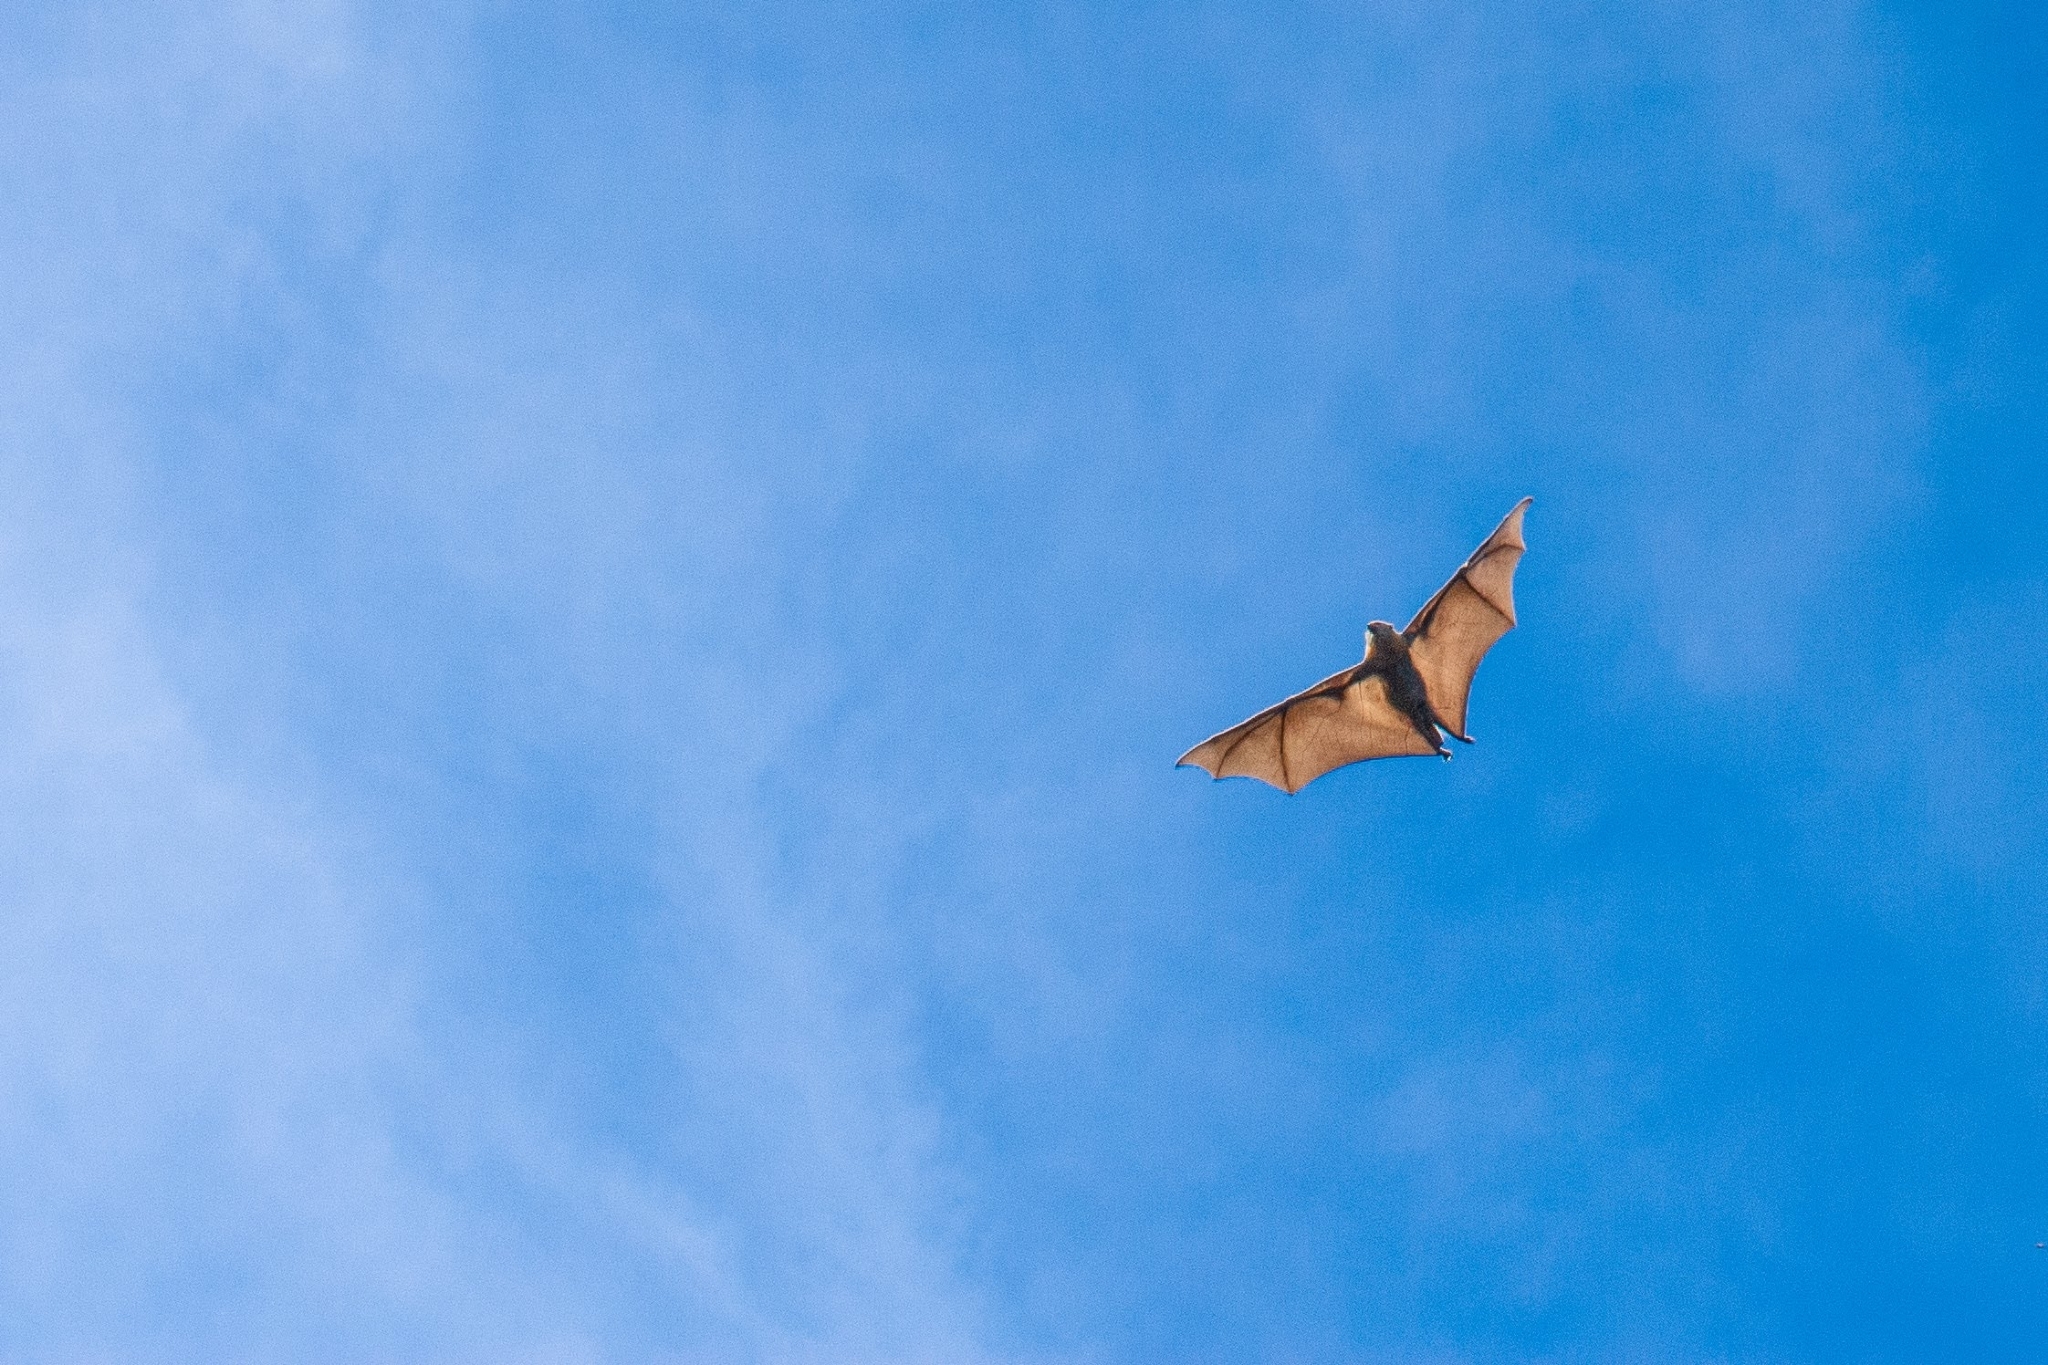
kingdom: Animalia
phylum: Chordata
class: Mammalia
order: Chiroptera
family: Pteropodidae
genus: Pteropus
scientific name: Pteropus poliocephalus
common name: Gray-headed flying fox
